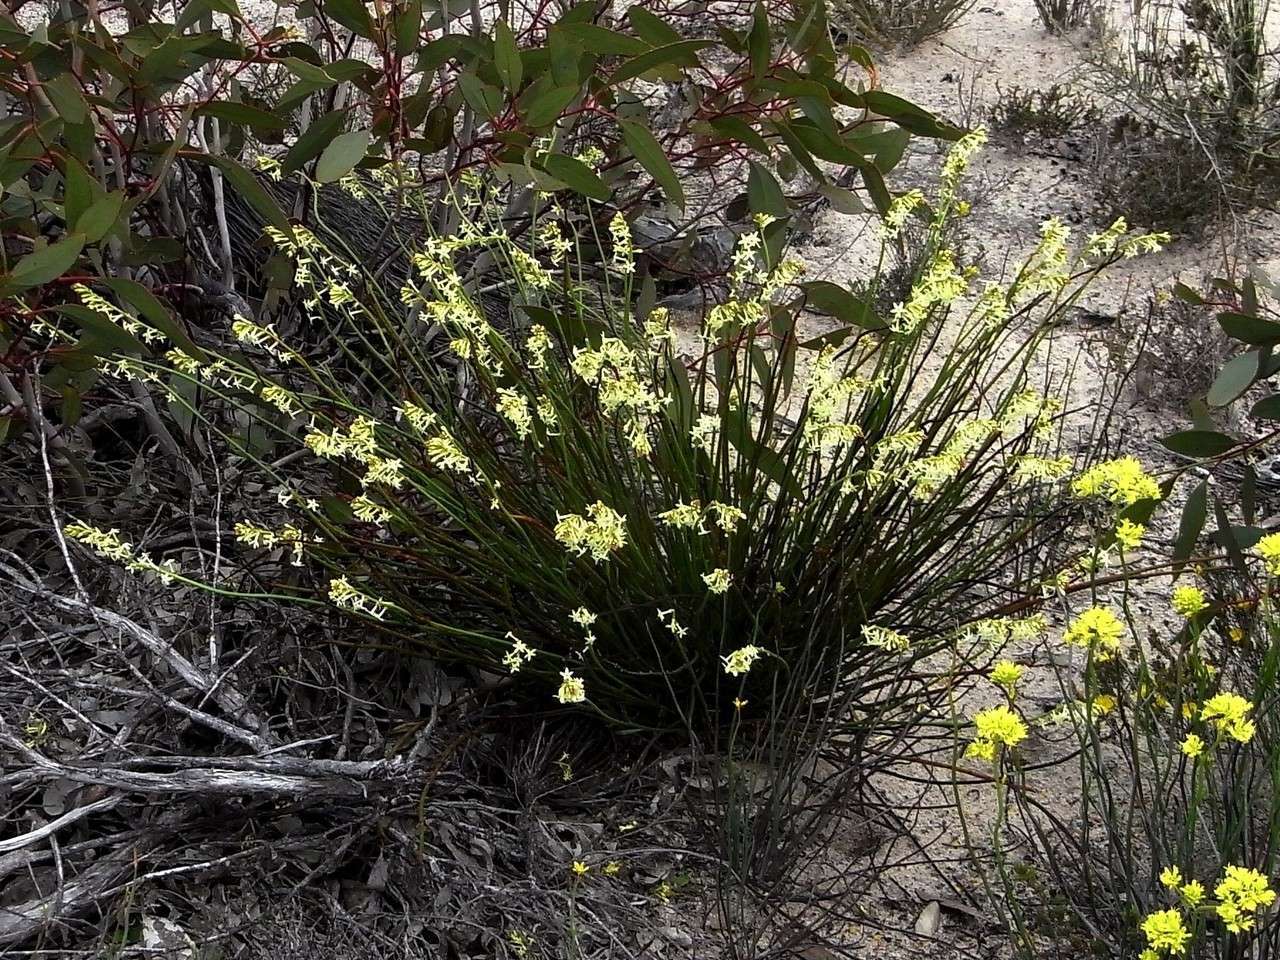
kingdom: Plantae
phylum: Tracheophyta
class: Magnoliopsida
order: Celastrales
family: Celastraceae
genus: Stackhousia
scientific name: Stackhousia monogyna
